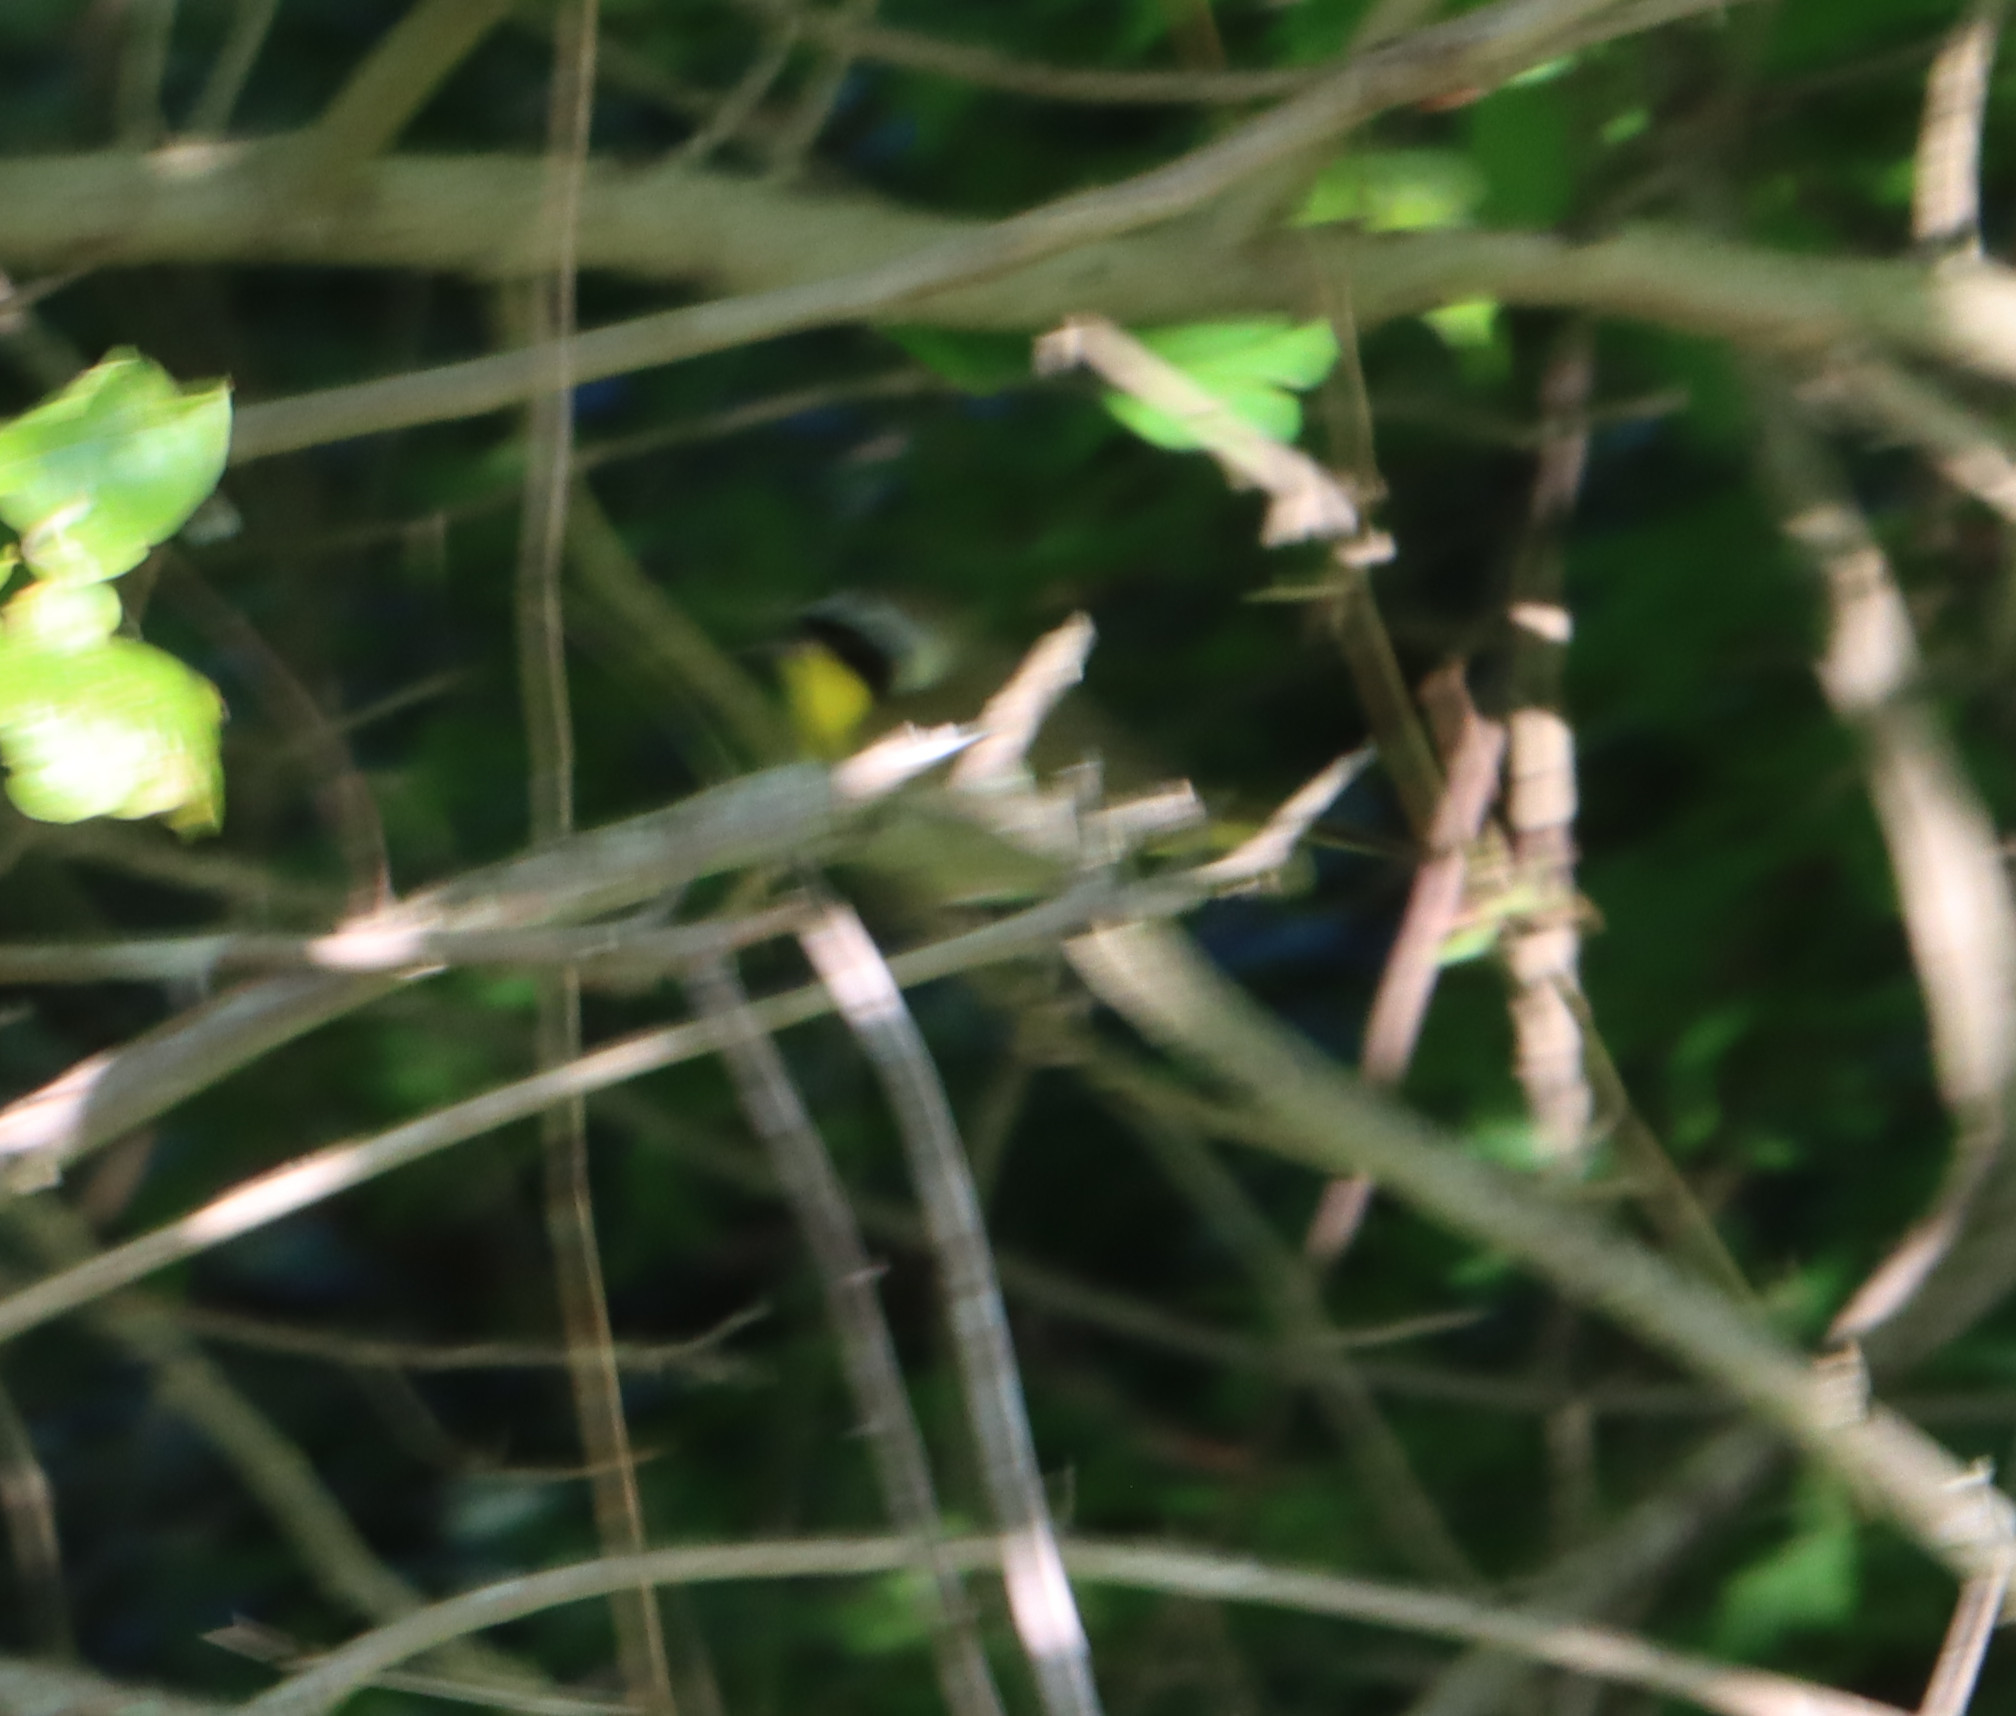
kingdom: Animalia
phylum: Chordata
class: Aves
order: Passeriformes
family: Parulidae
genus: Geothlypis
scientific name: Geothlypis trichas
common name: Common yellowthroat
